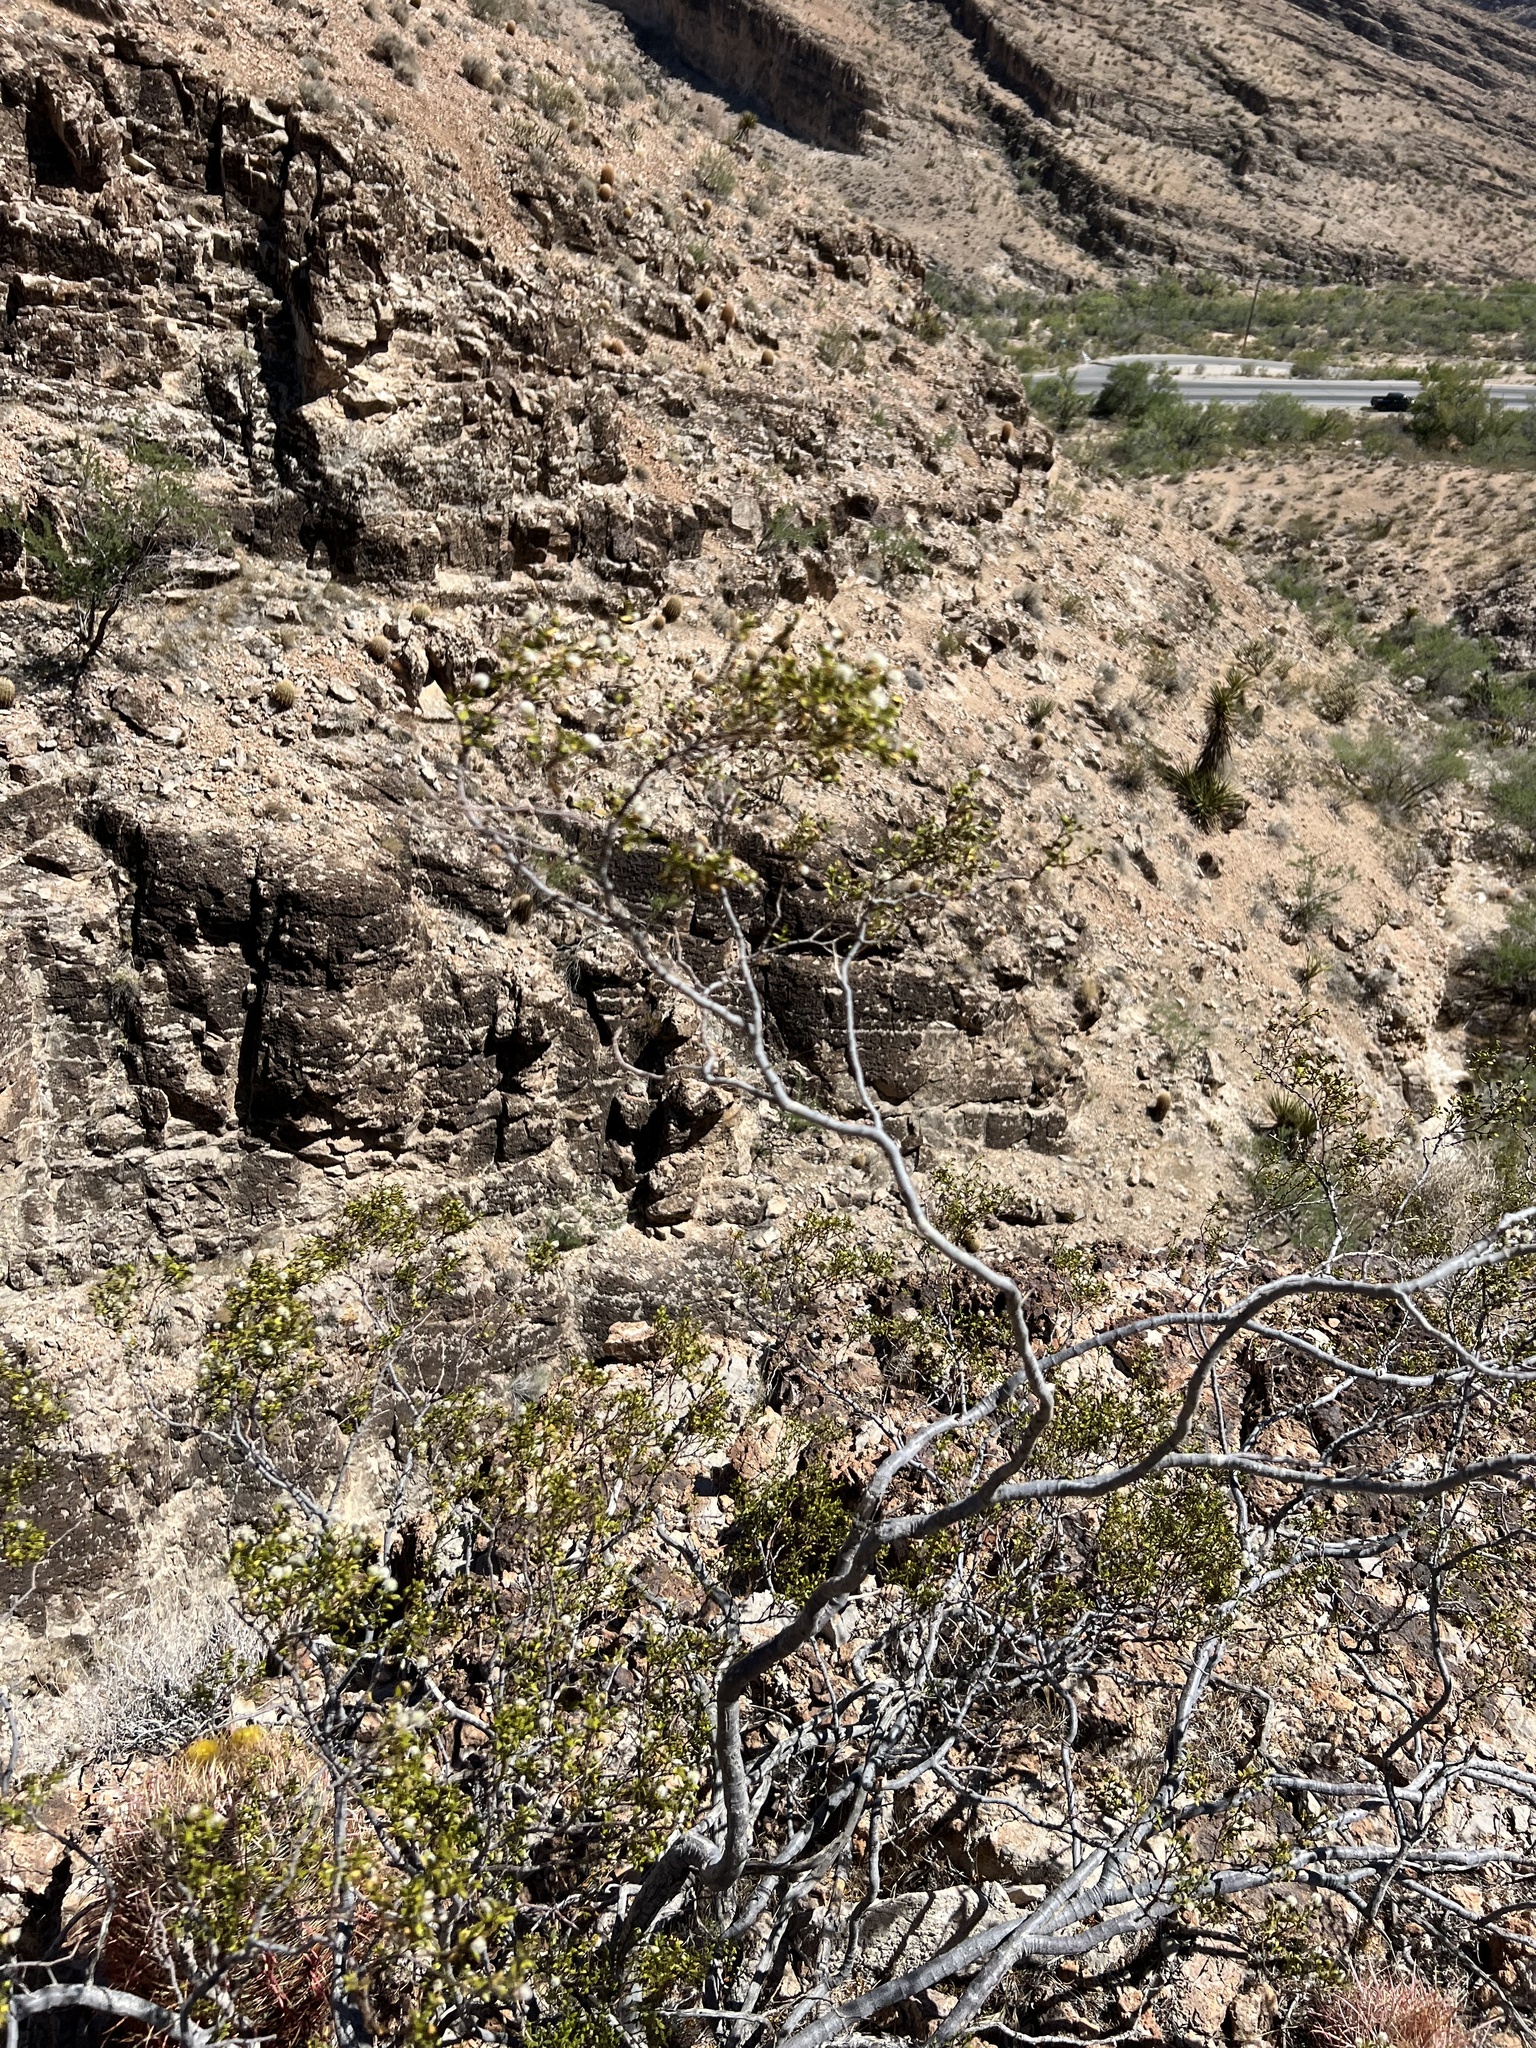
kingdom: Plantae
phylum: Tracheophyta
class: Magnoliopsida
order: Zygophyllales
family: Zygophyllaceae
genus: Larrea
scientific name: Larrea tridentata
